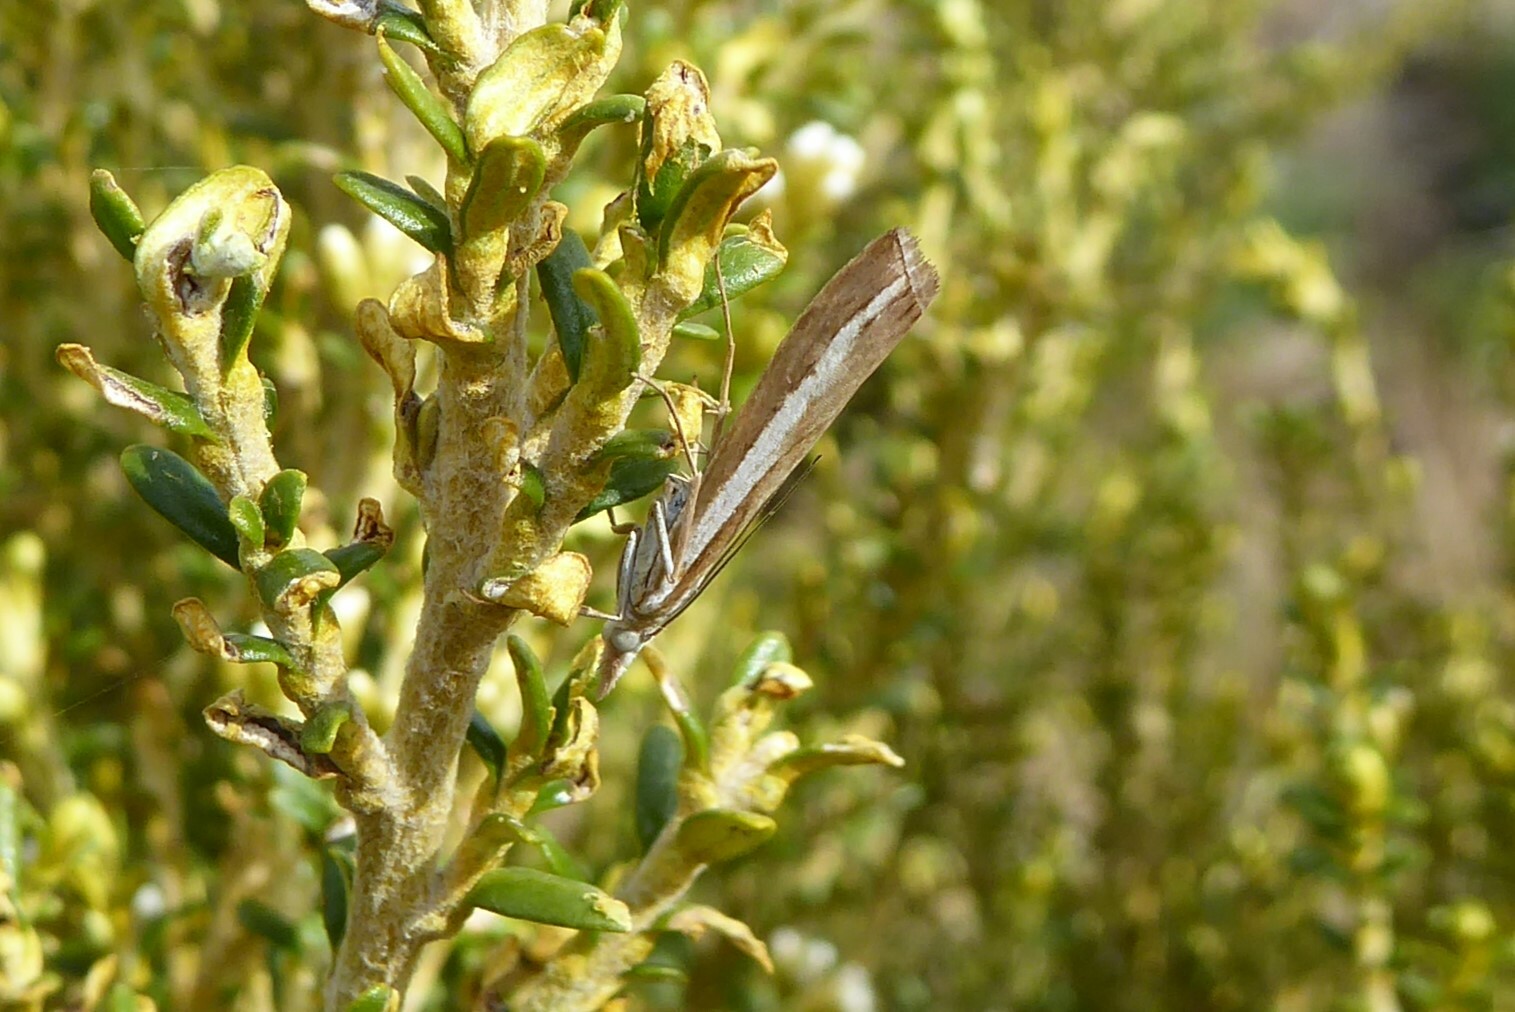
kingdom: Animalia
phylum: Arthropoda
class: Insecta
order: Lepidoptera
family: Crambidae
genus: Orocrambus
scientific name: Orocrambus vittellus
